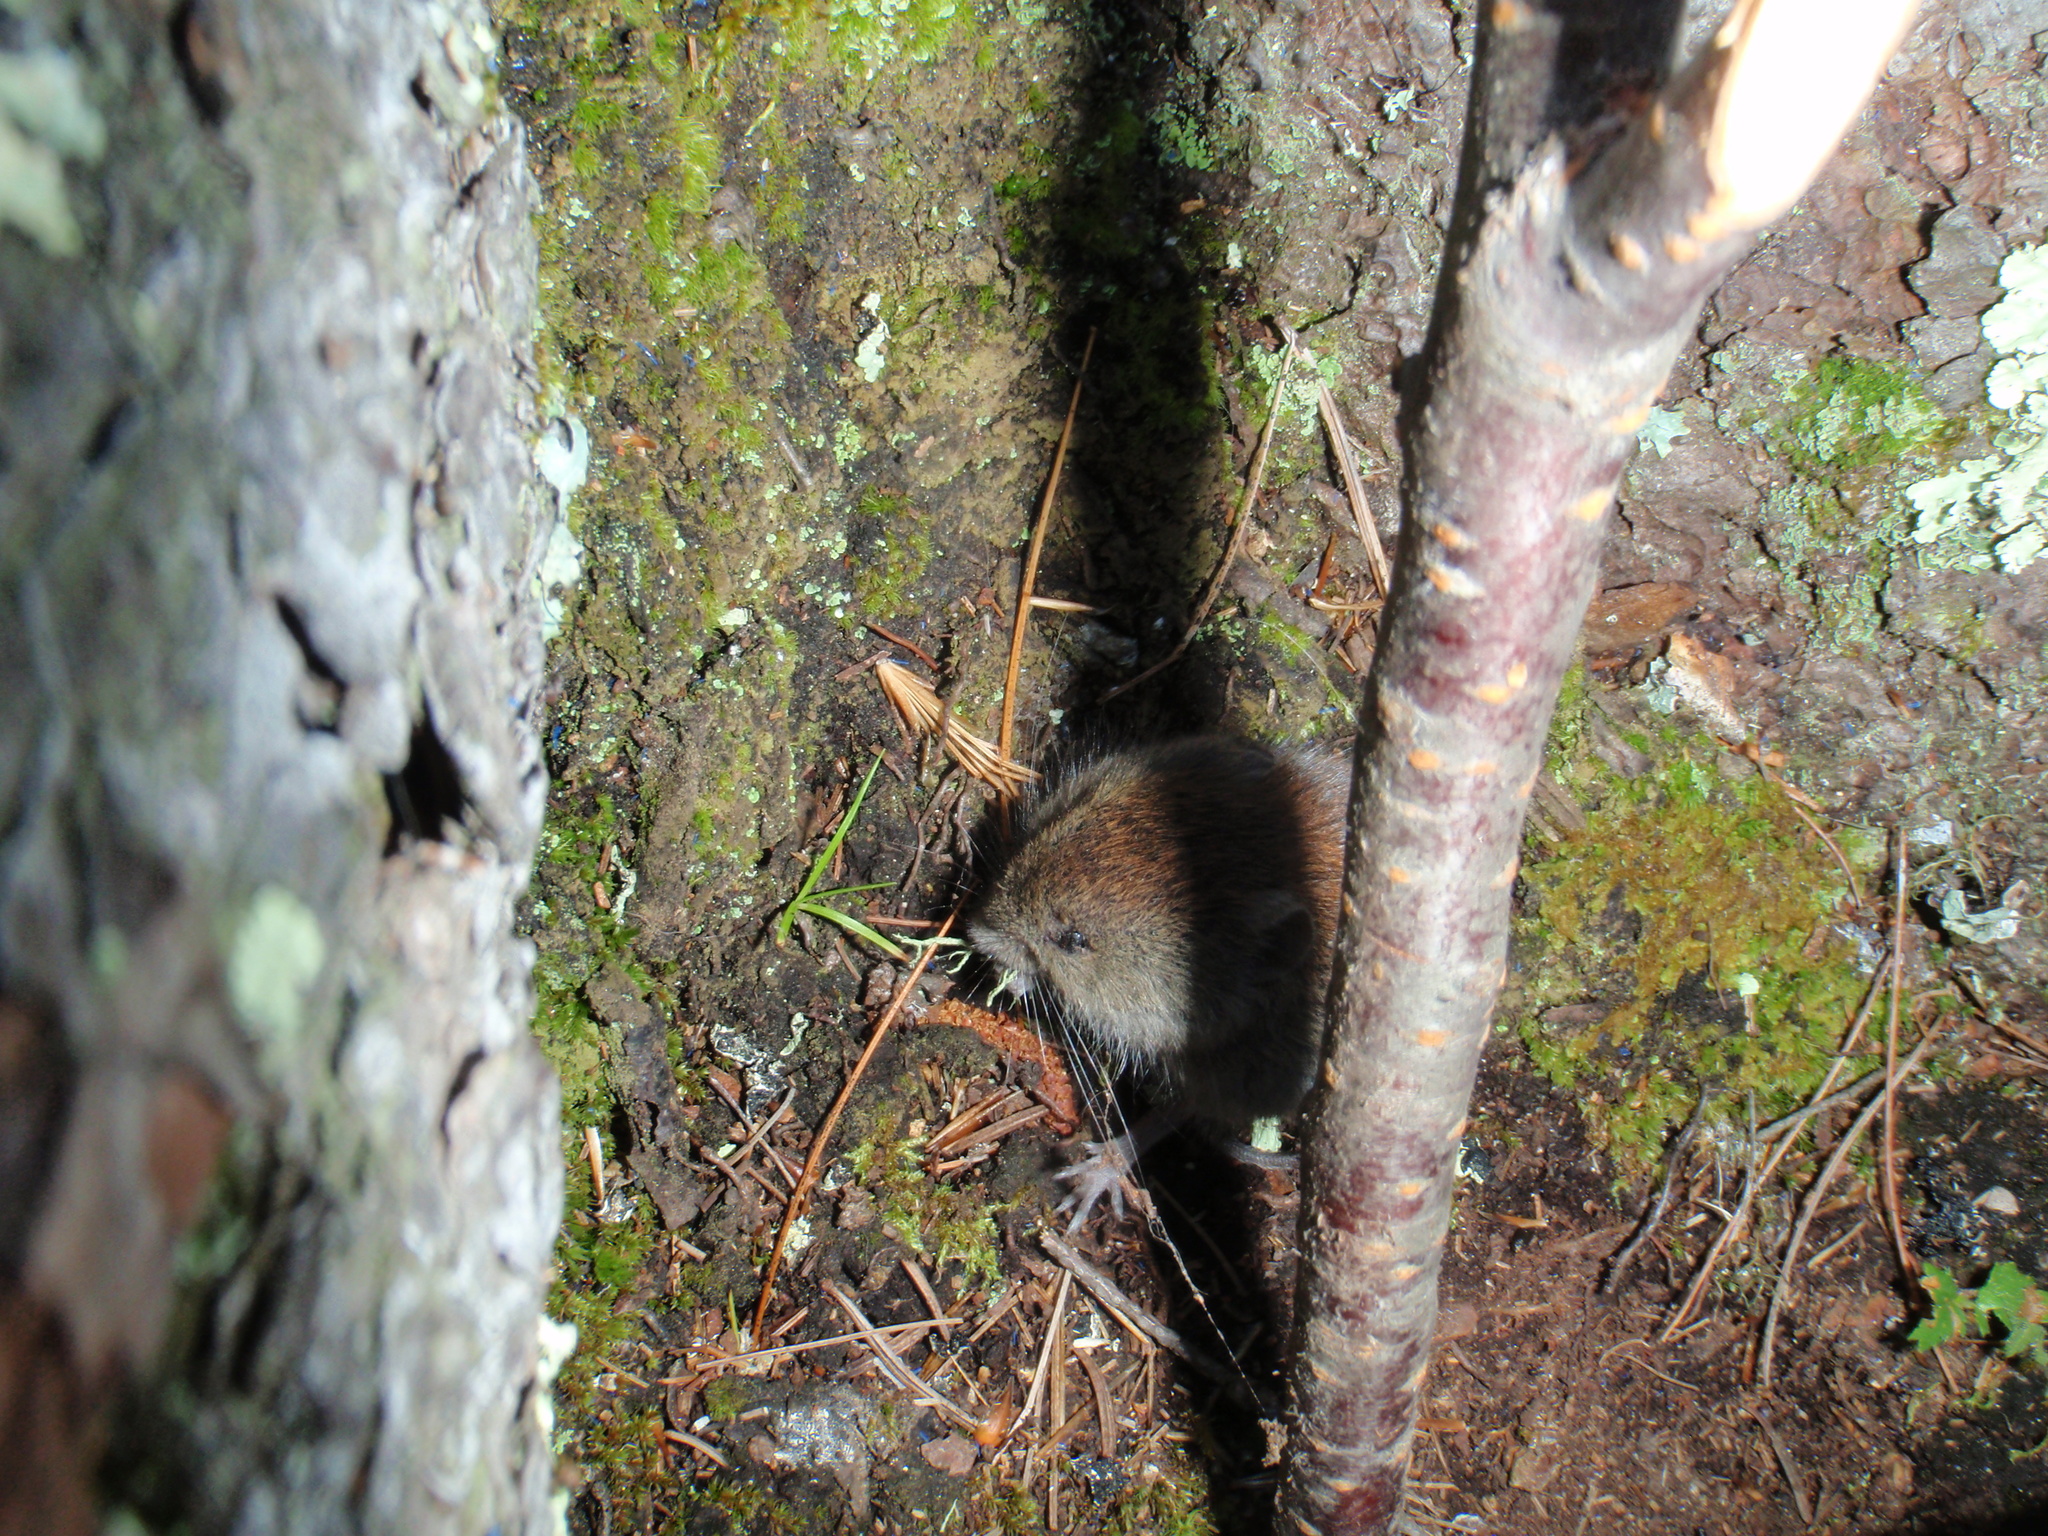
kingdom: Animalia
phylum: Chordata
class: Mammalia
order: Rodentia
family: Cricetidae
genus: Myodes
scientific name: Myodes gapperi
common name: Southern red-backed vole
